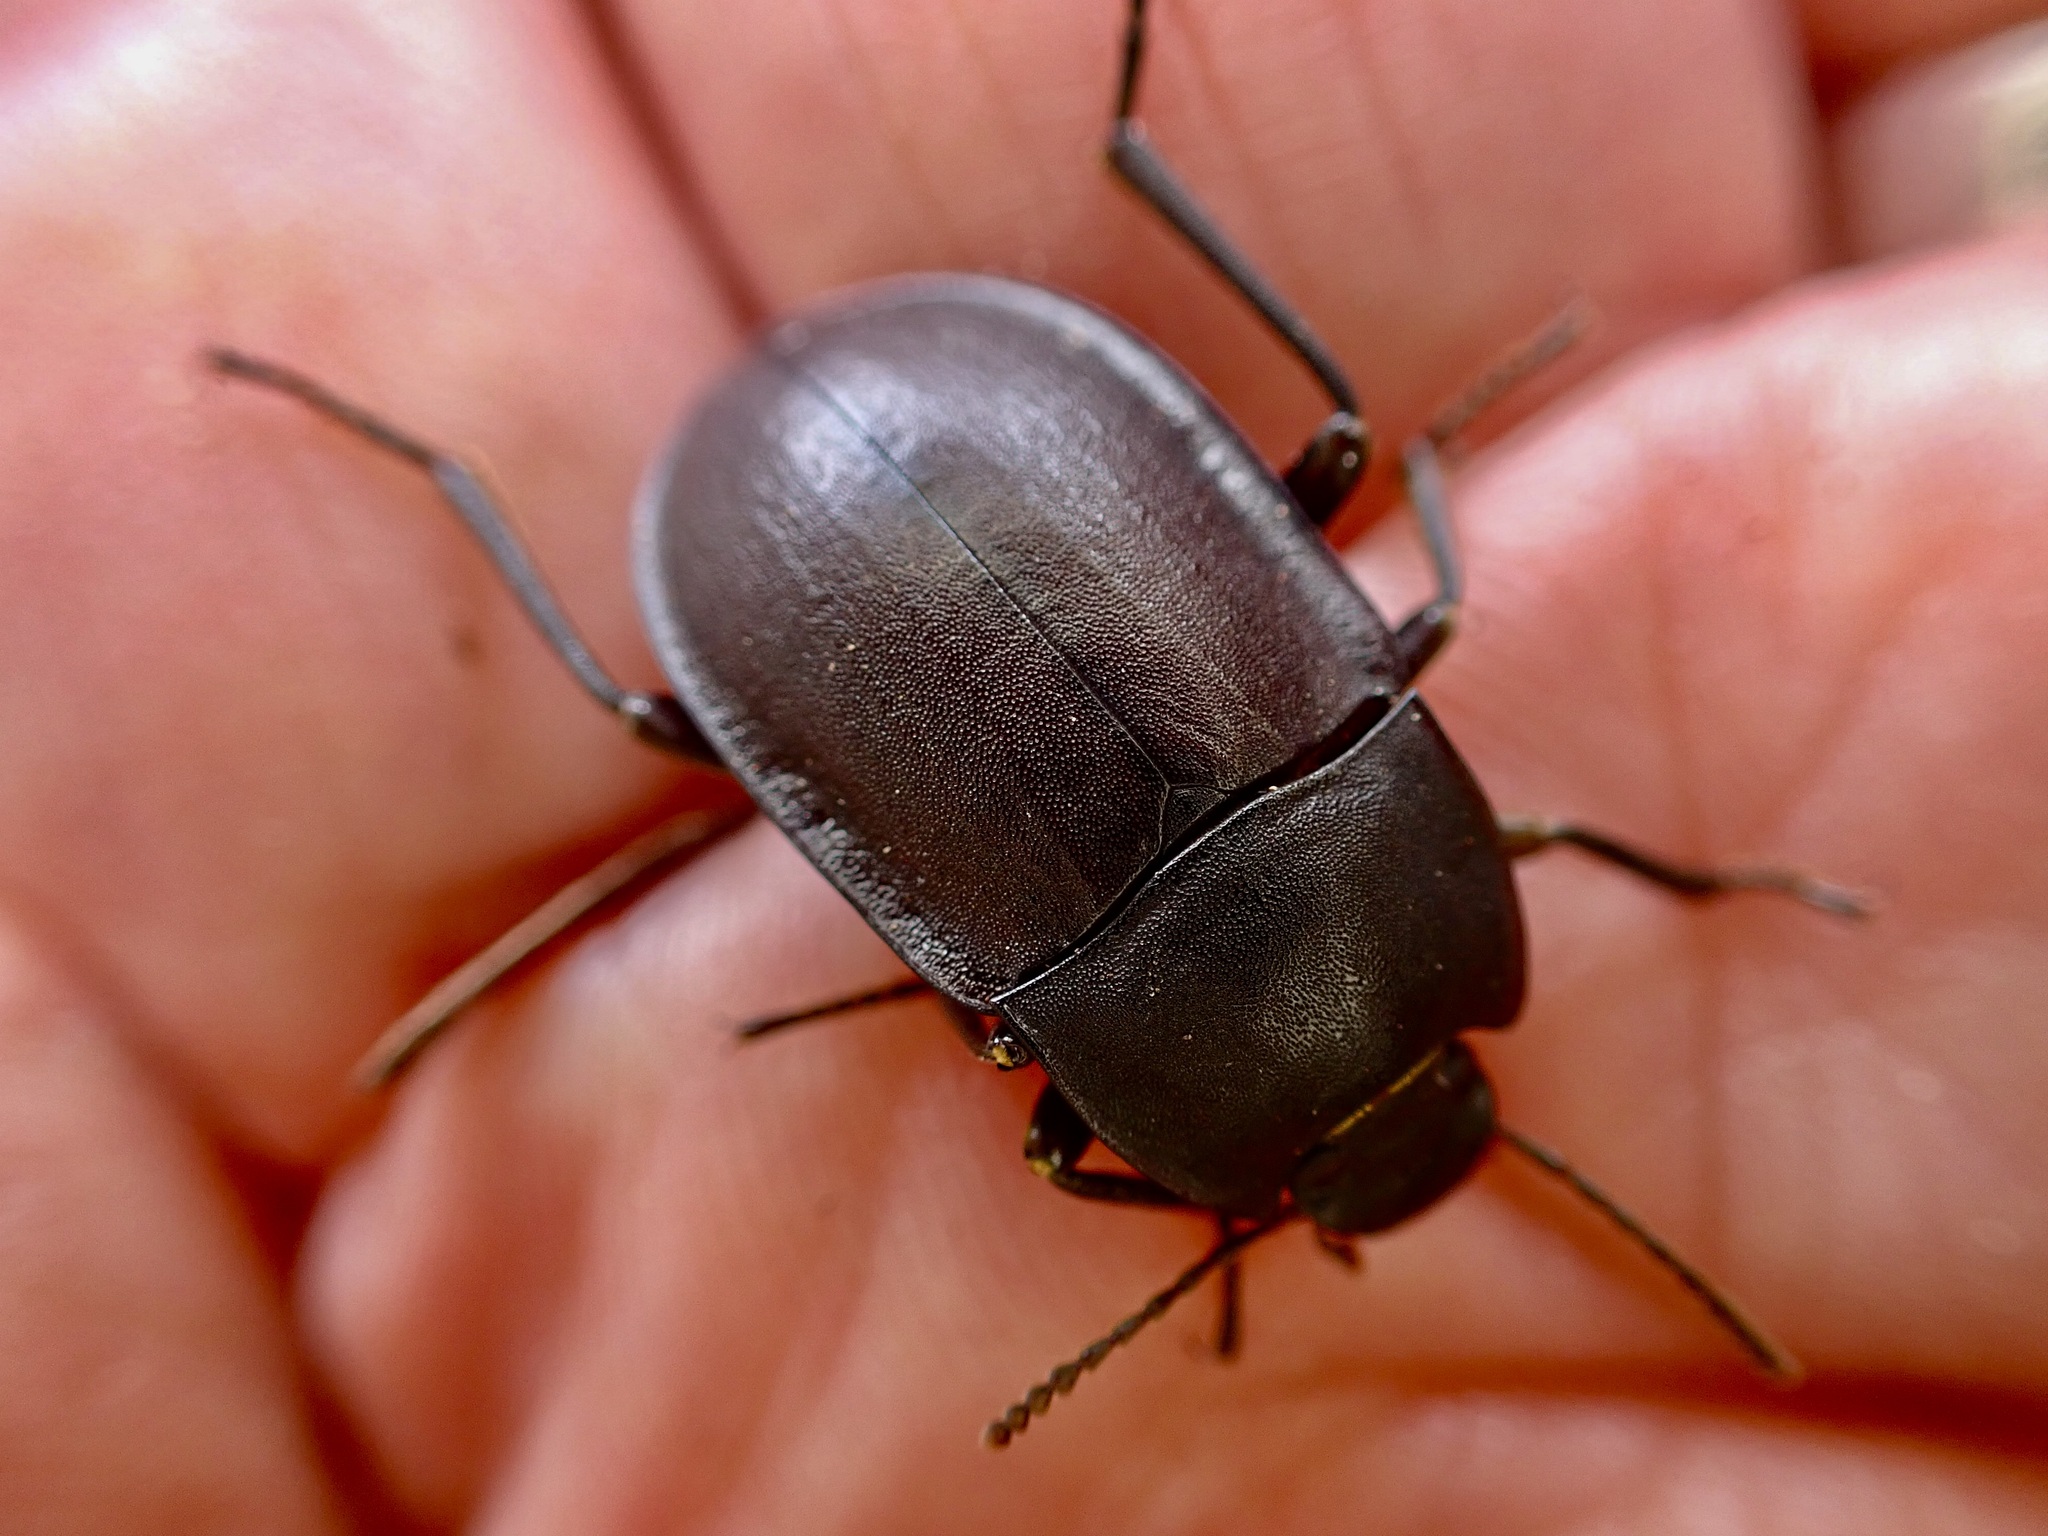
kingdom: Animalia
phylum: Arthropoda
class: Insecta
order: Coleoptera
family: Tenebrionidae
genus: Mimopeus
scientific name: Mimopeus
